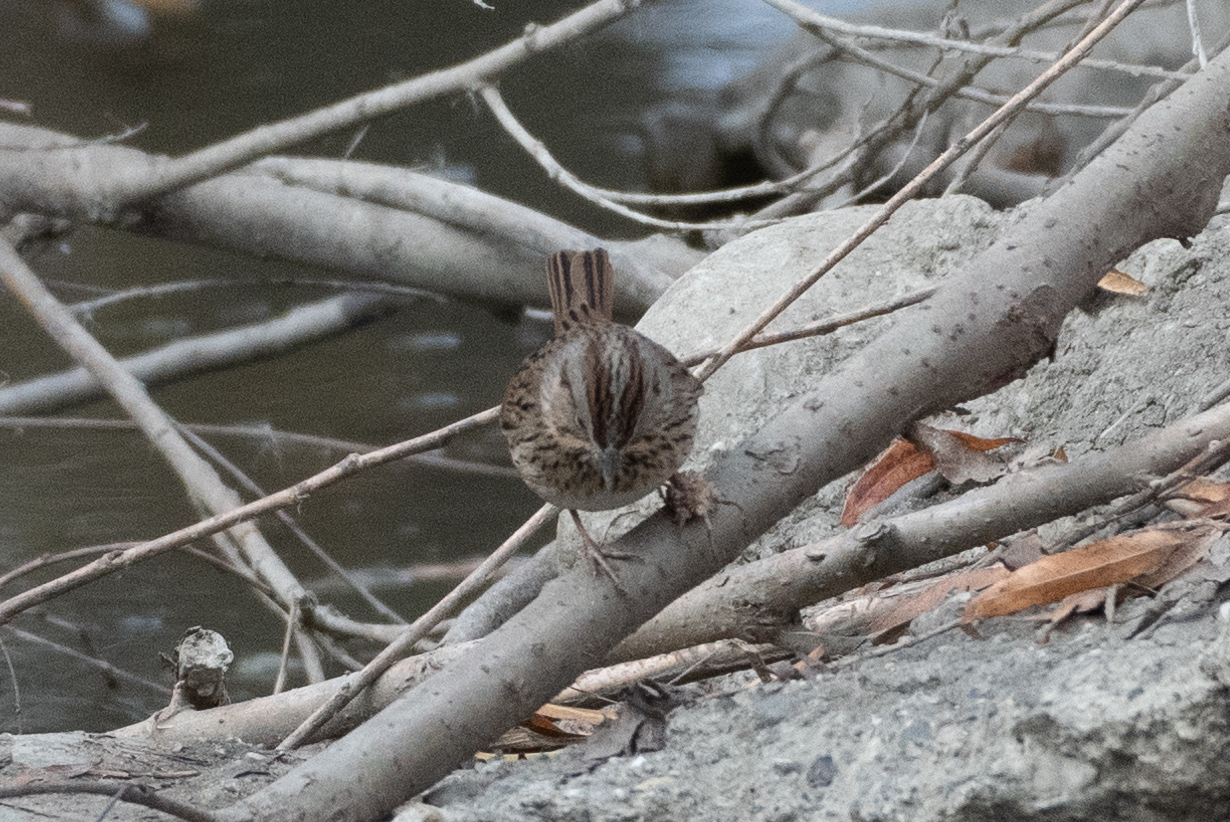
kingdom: Animalia
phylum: Chordata
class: Aves
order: Passeriformes
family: Passerellidae
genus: Melospiza
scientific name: Melospiza lincolnii
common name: Lincoln's sparrow
